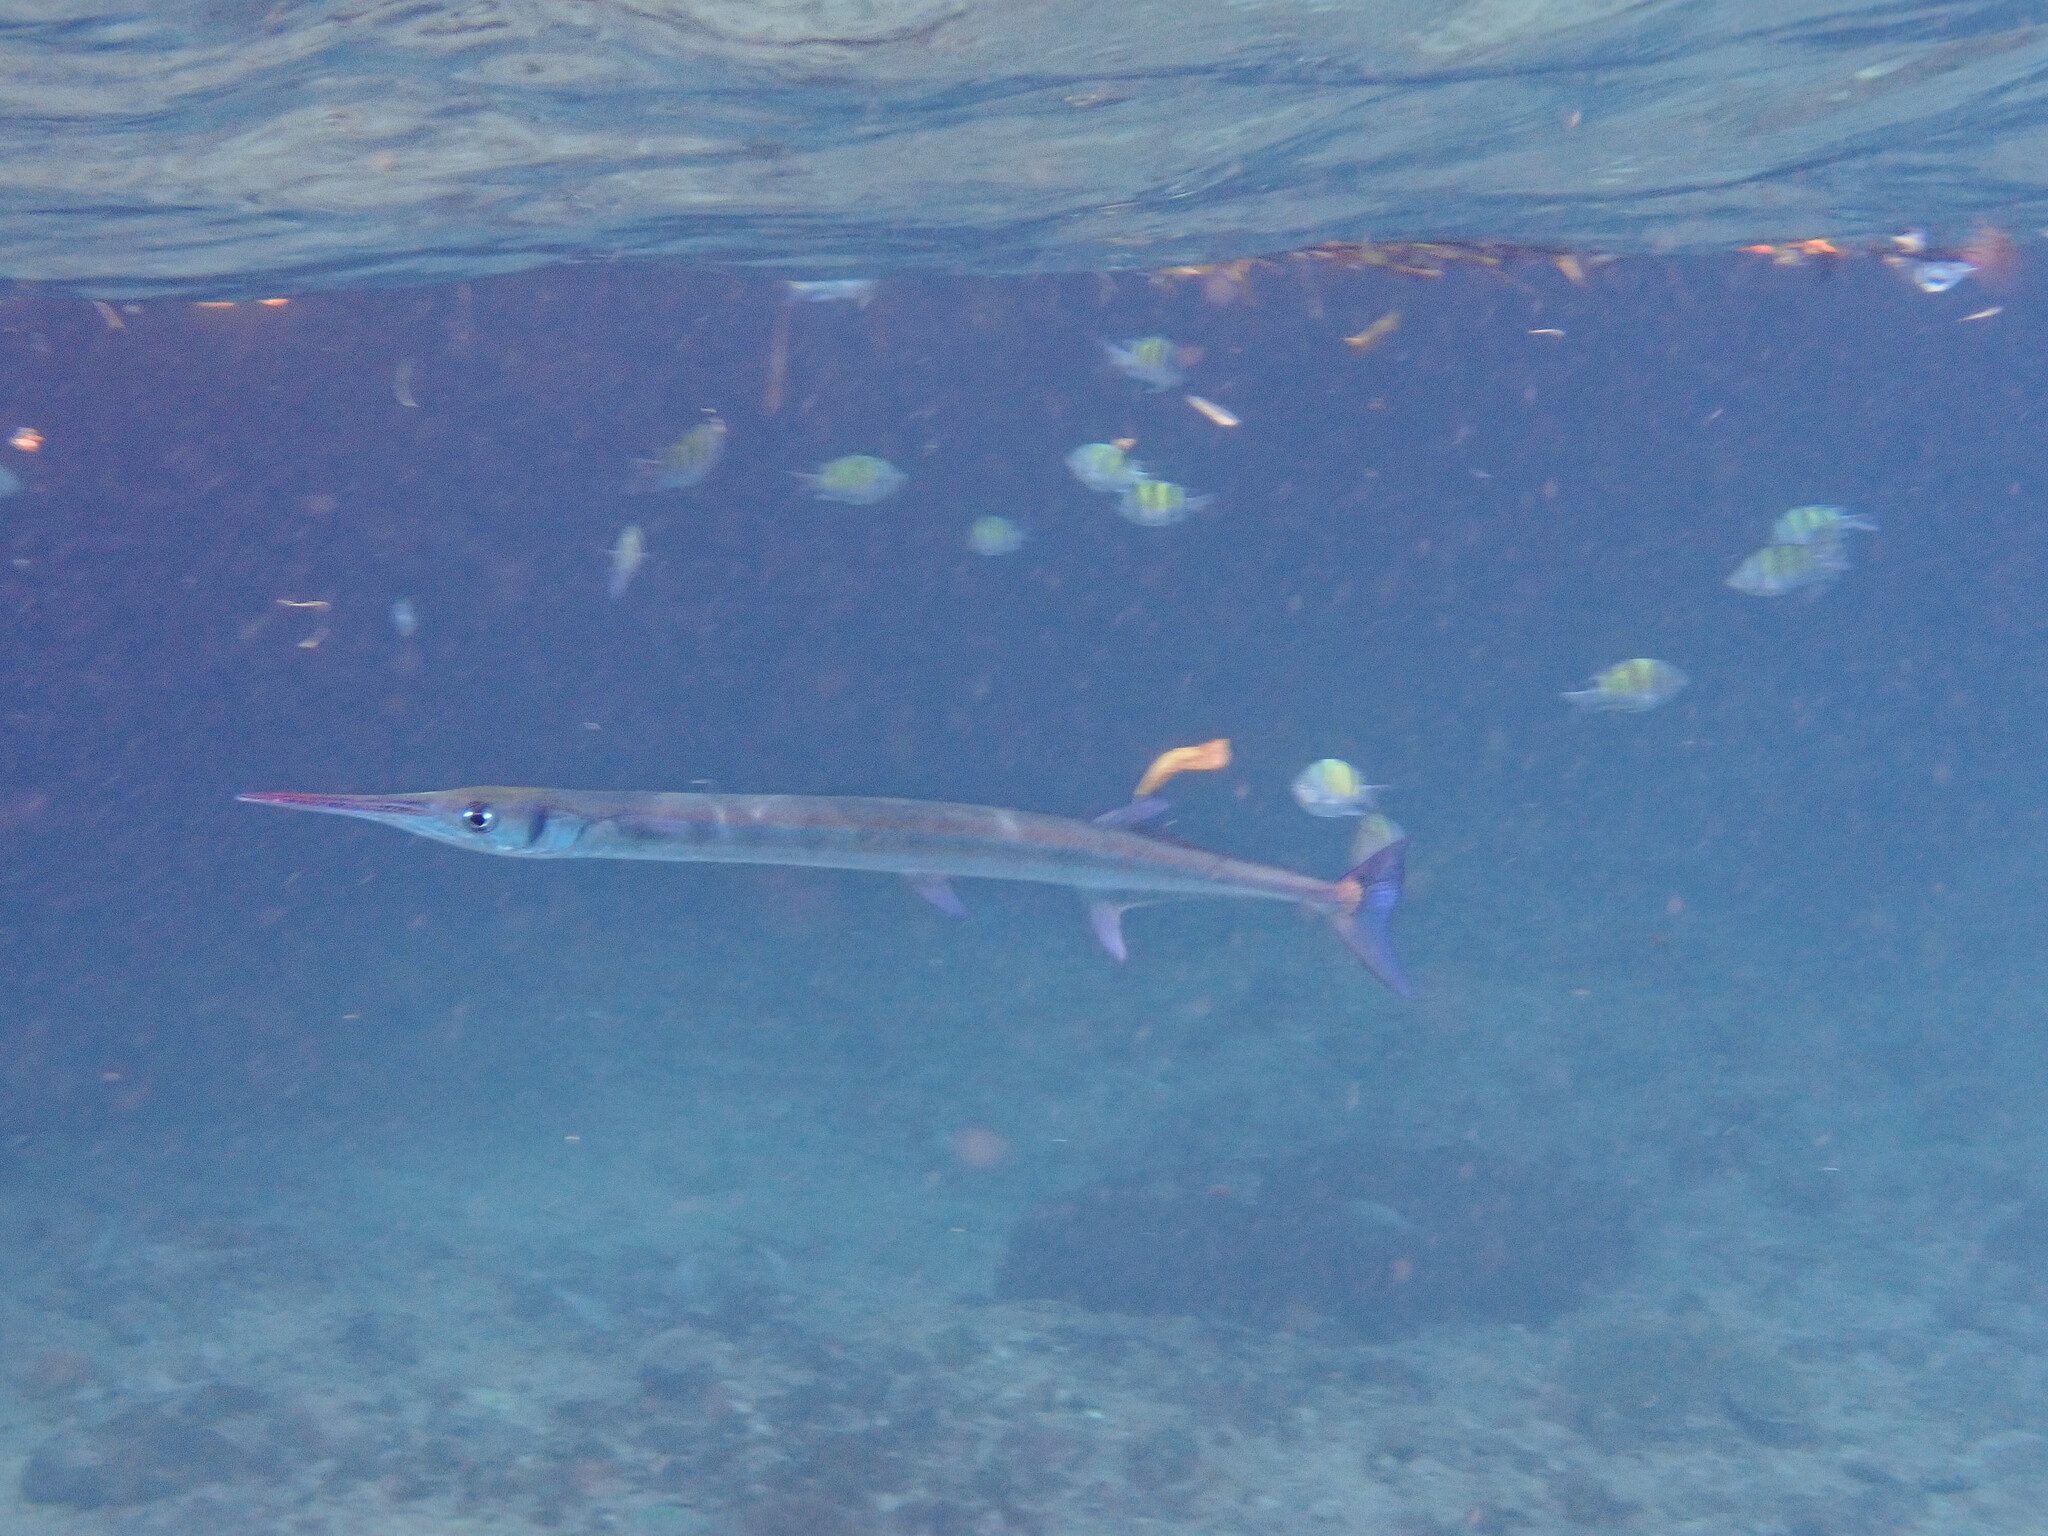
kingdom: Animalia
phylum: Chordata
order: Beloniformes
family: Belonidae
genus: Tylosurus
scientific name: Tylosurus crocodilus
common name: Houndfish
